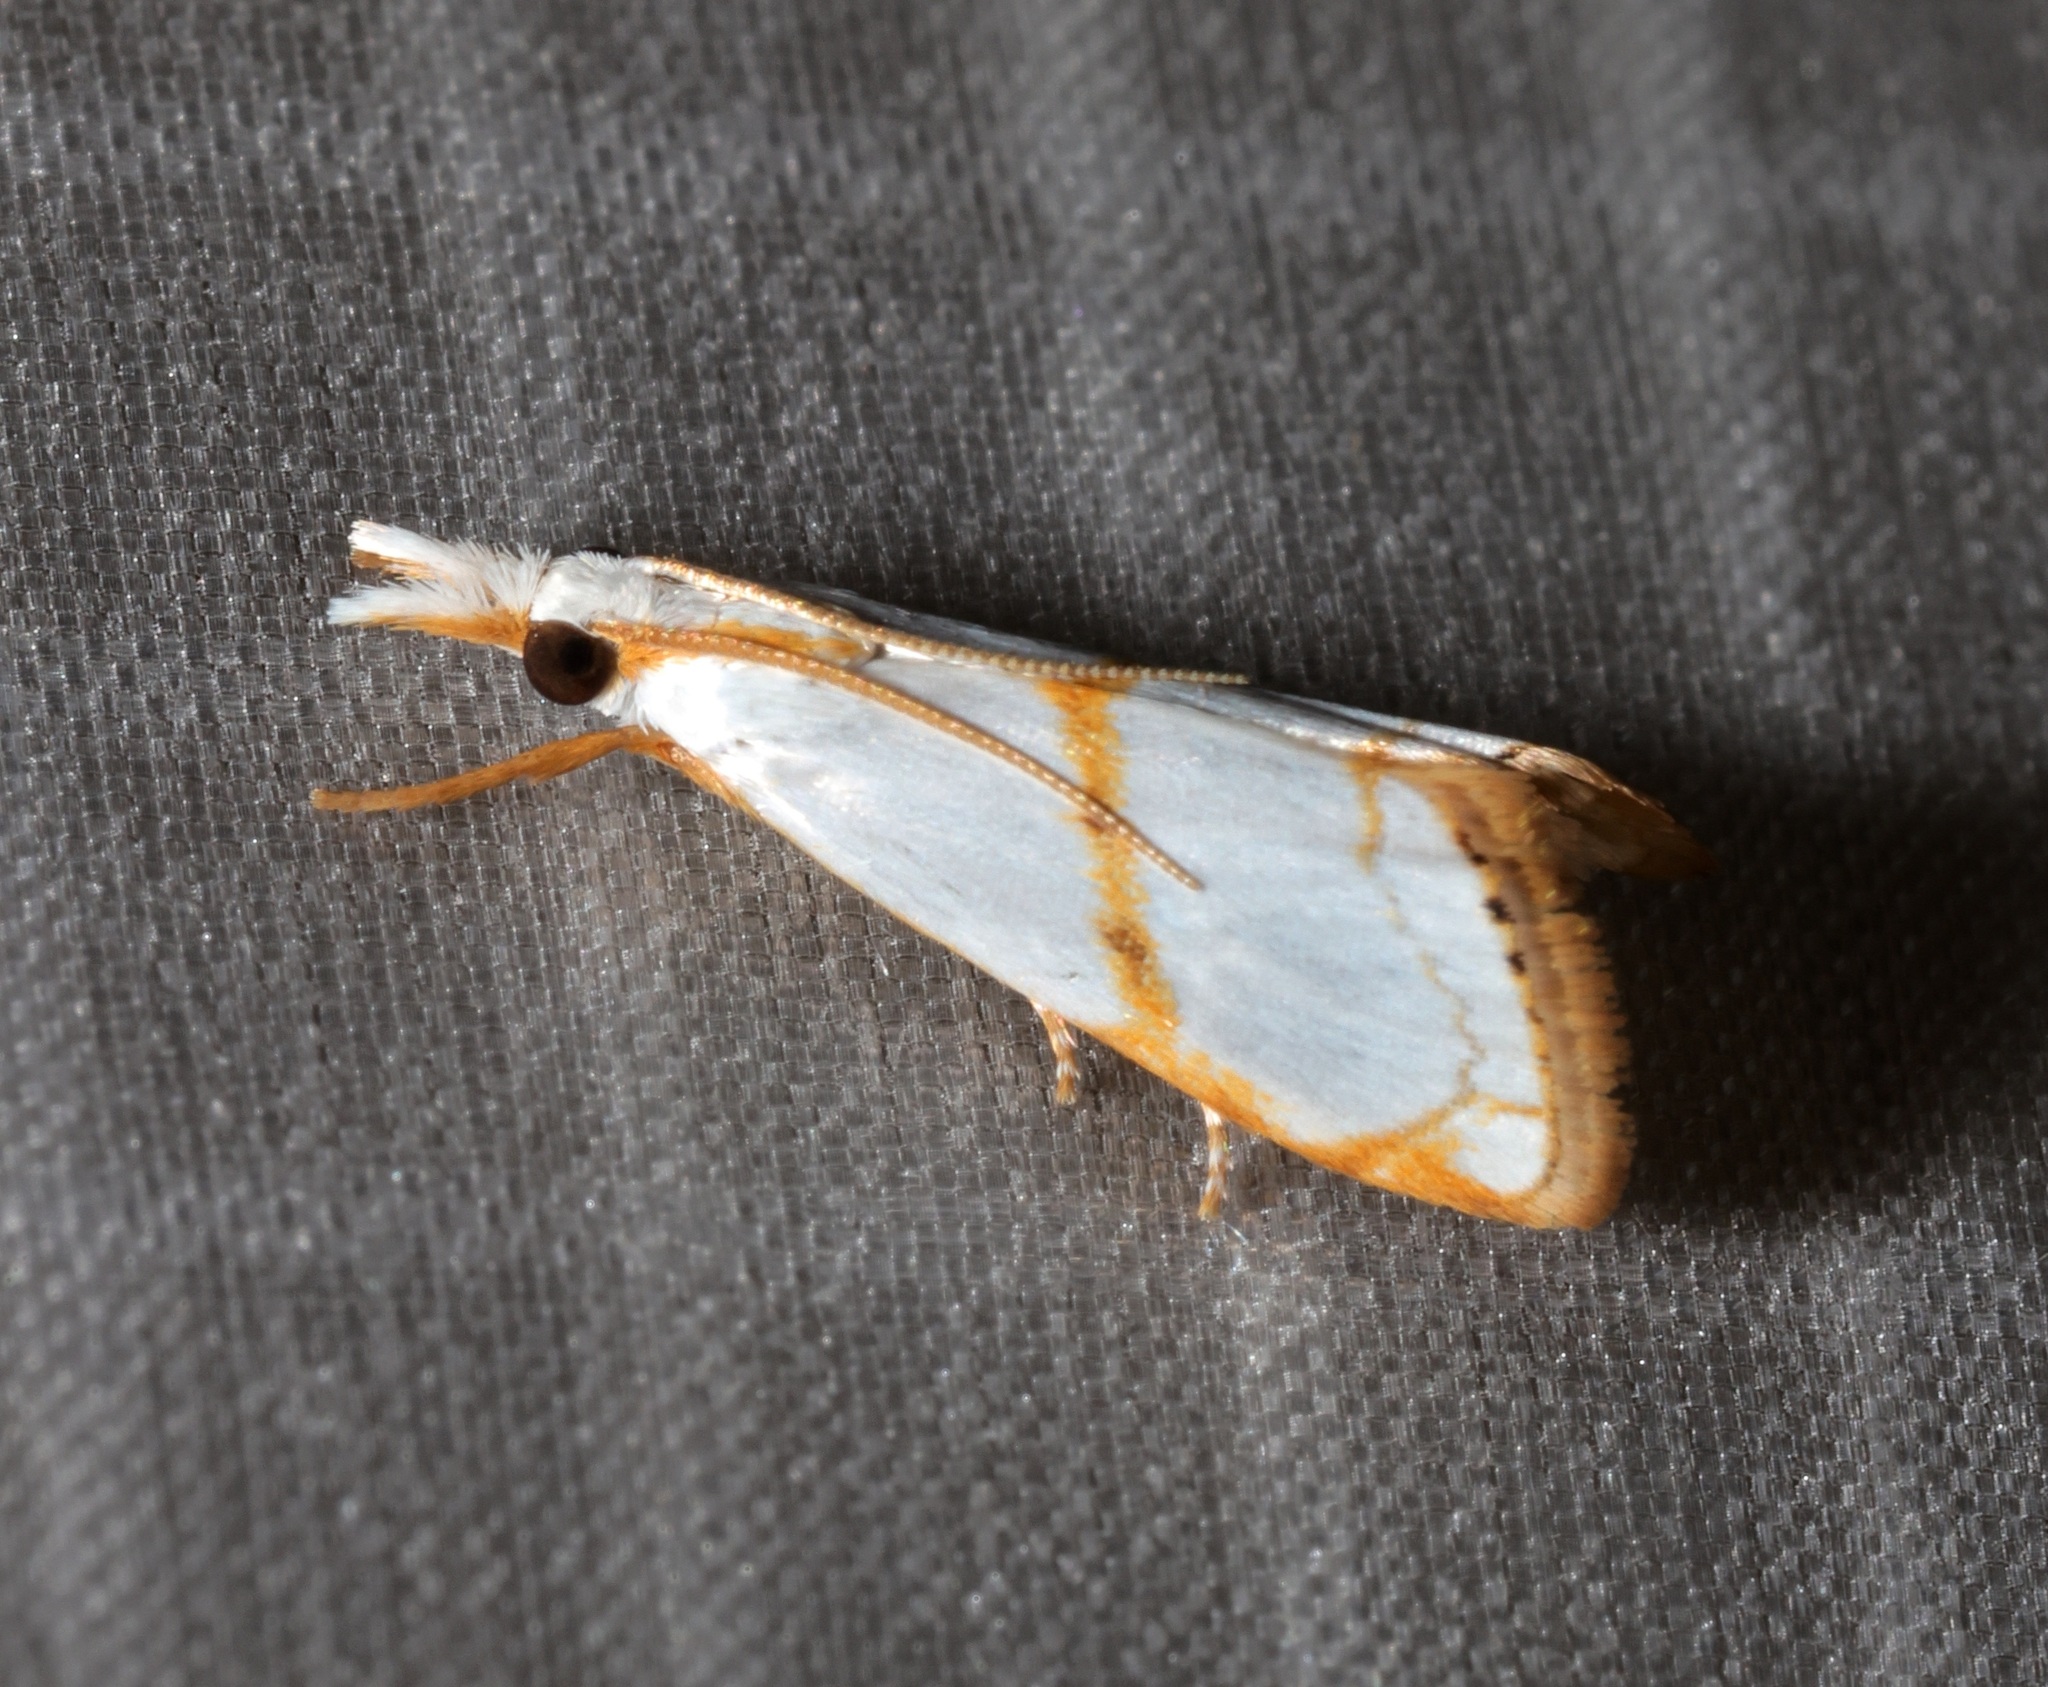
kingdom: Animalia
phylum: Arthropoda
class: Insecta
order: Lepidoptera
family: Crambidae
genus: Pseudargyria
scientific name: Pseudargyria interruptella
